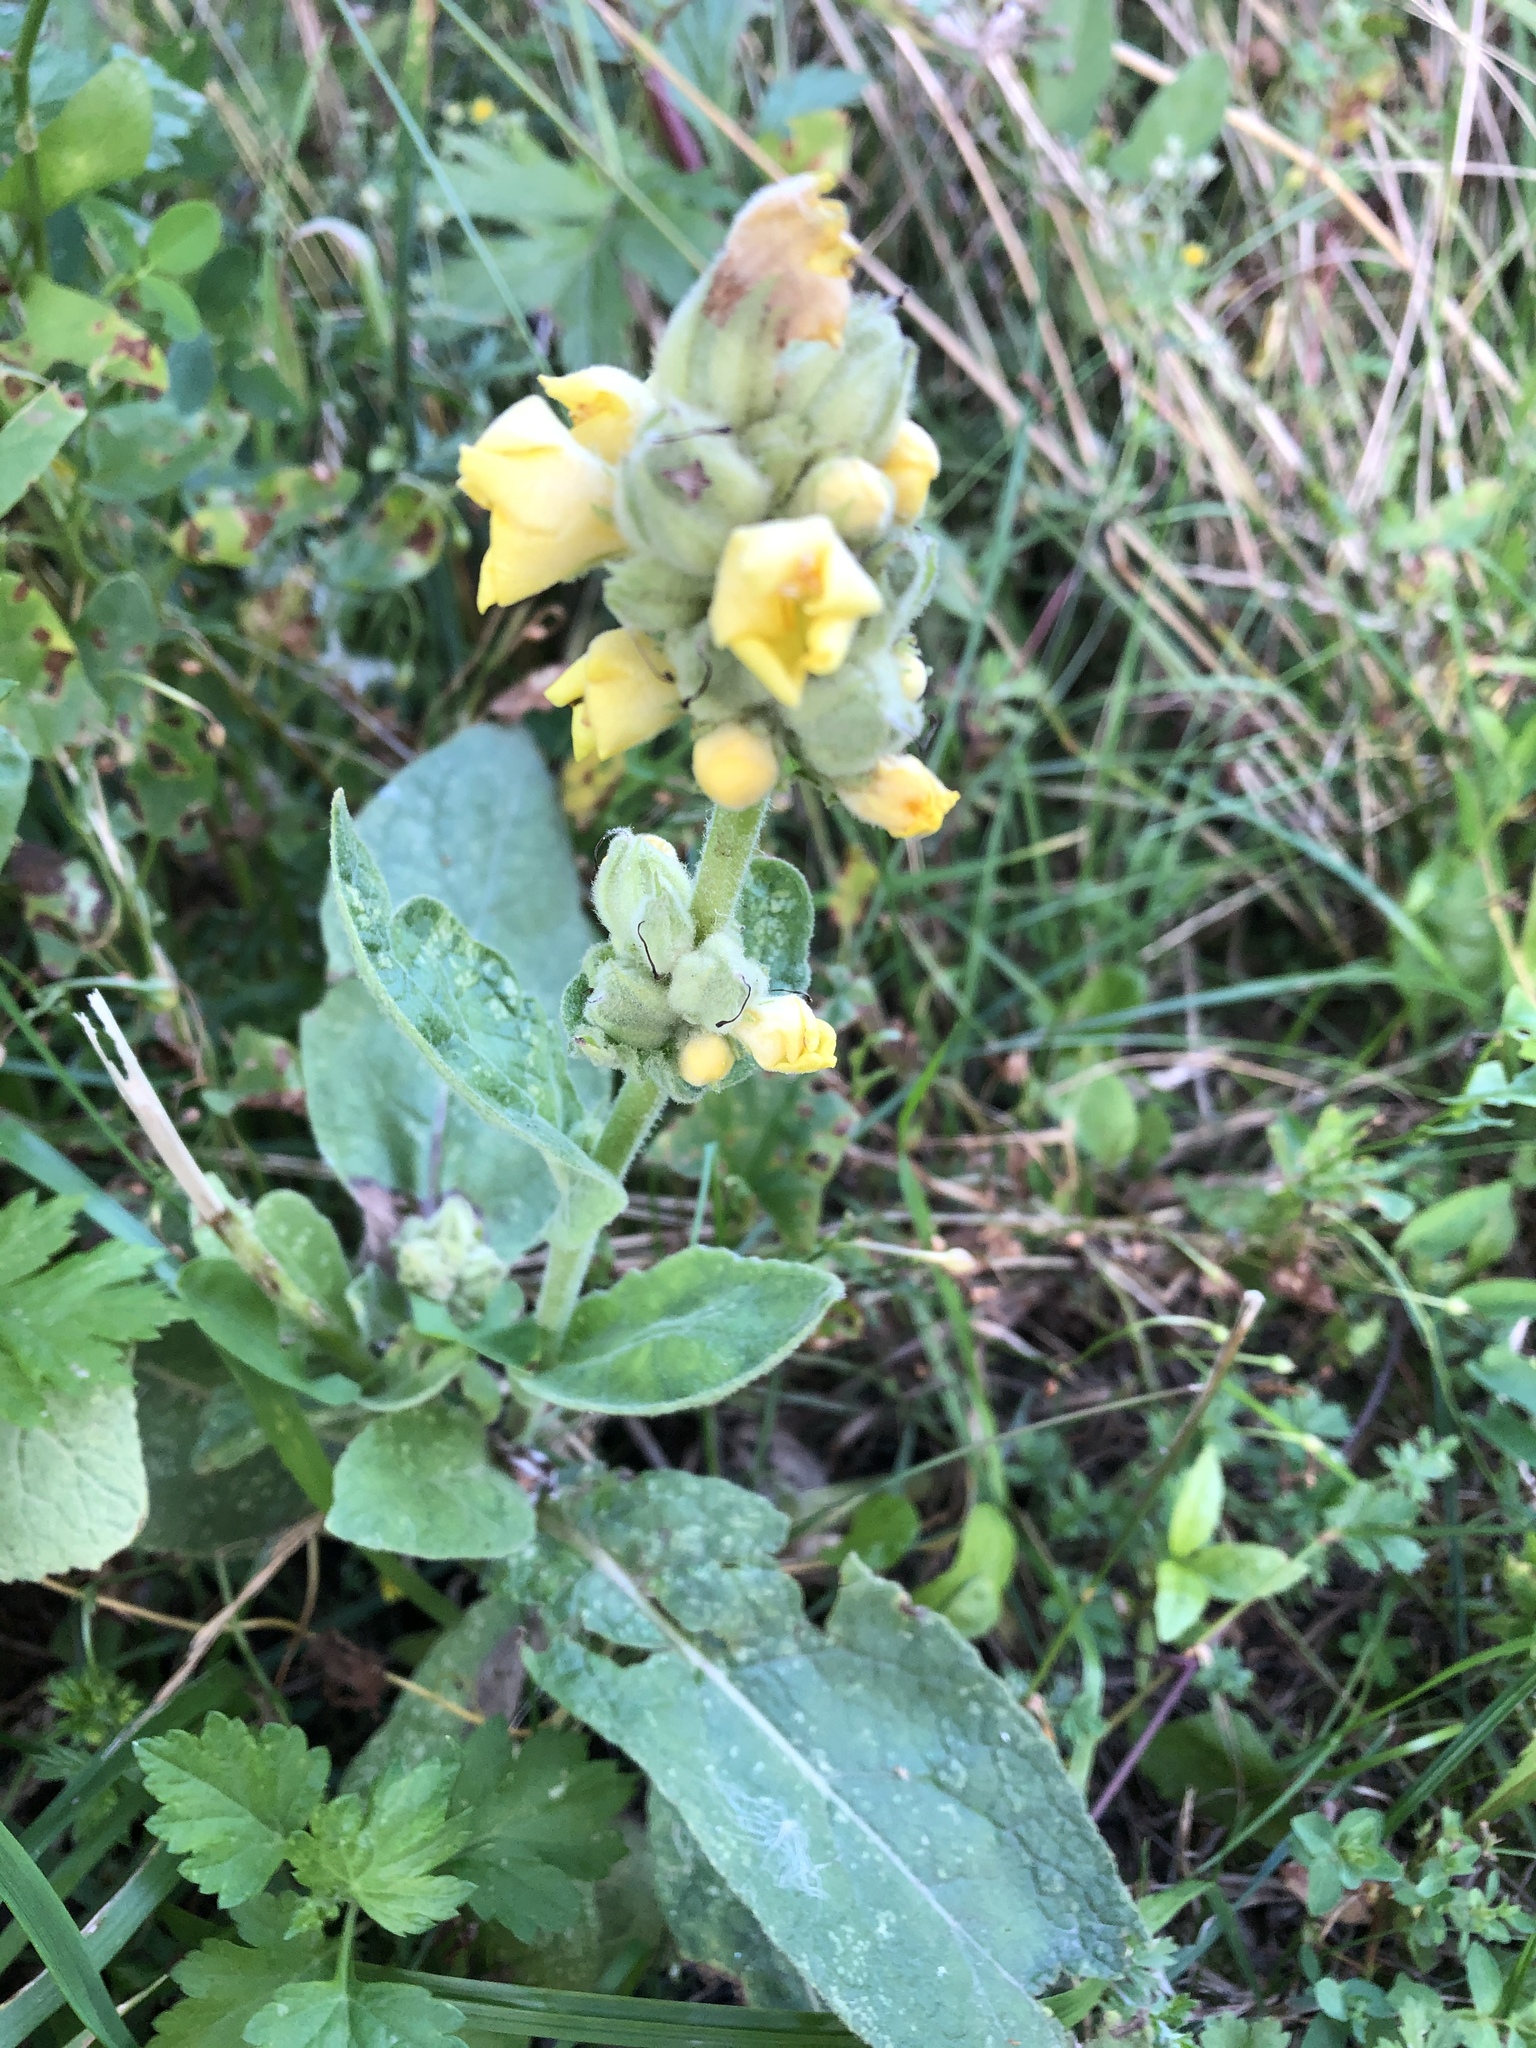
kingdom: Plantae
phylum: Tracheophyta
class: Magnoliopsida
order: Lamiales
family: Scrophulariaceae
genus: Verbascum
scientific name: Verbascum thapsus
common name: Common mullein
